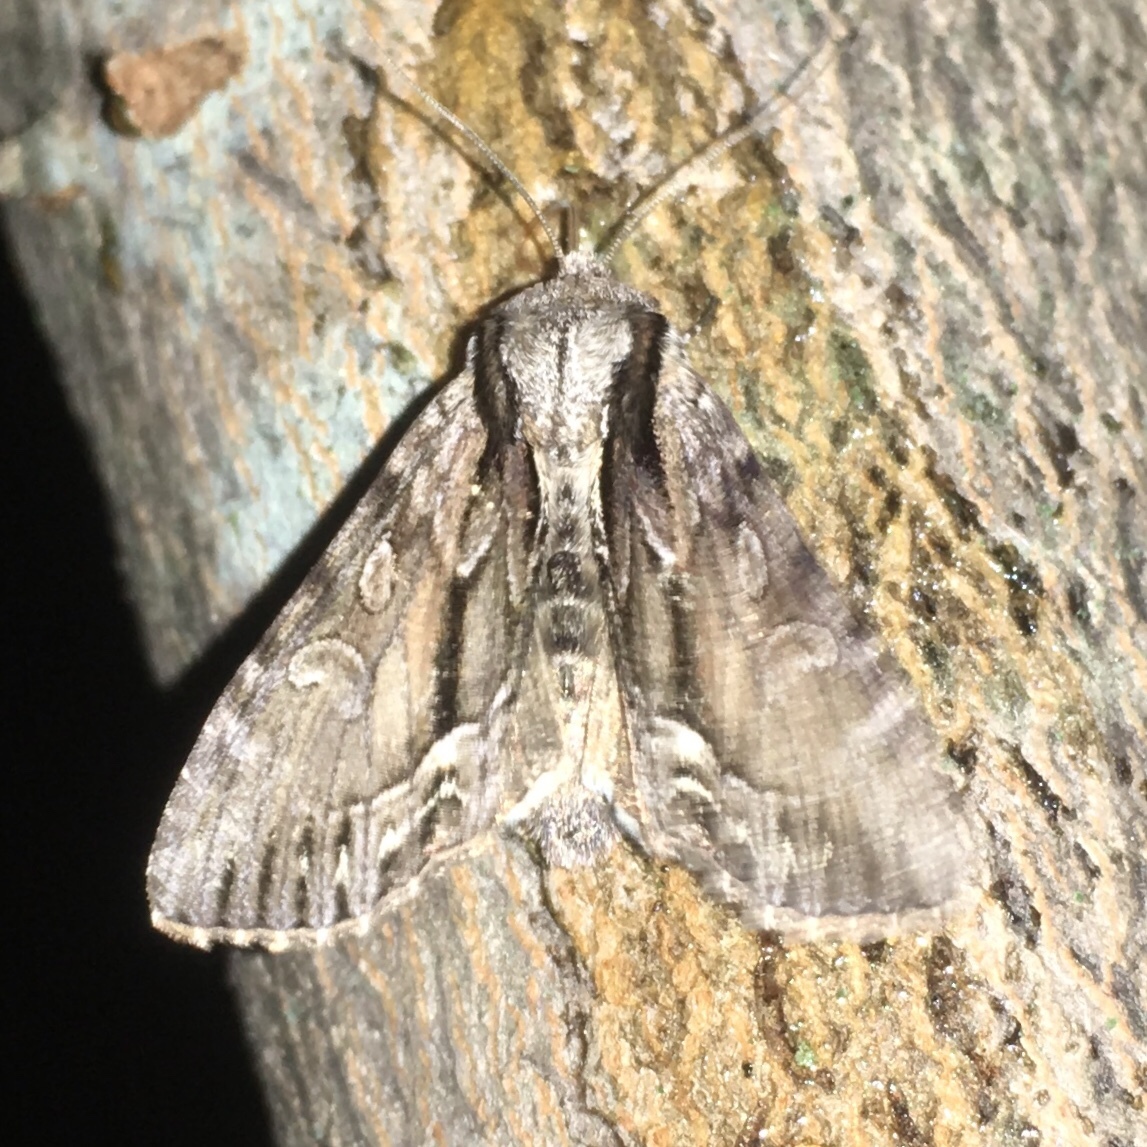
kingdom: Animalia
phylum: Arthropoda
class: Insecta
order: Lepidoptera
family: Noctuidae
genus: Hyppa
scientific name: Hyppa xylinoides
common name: Common hyppa moth
